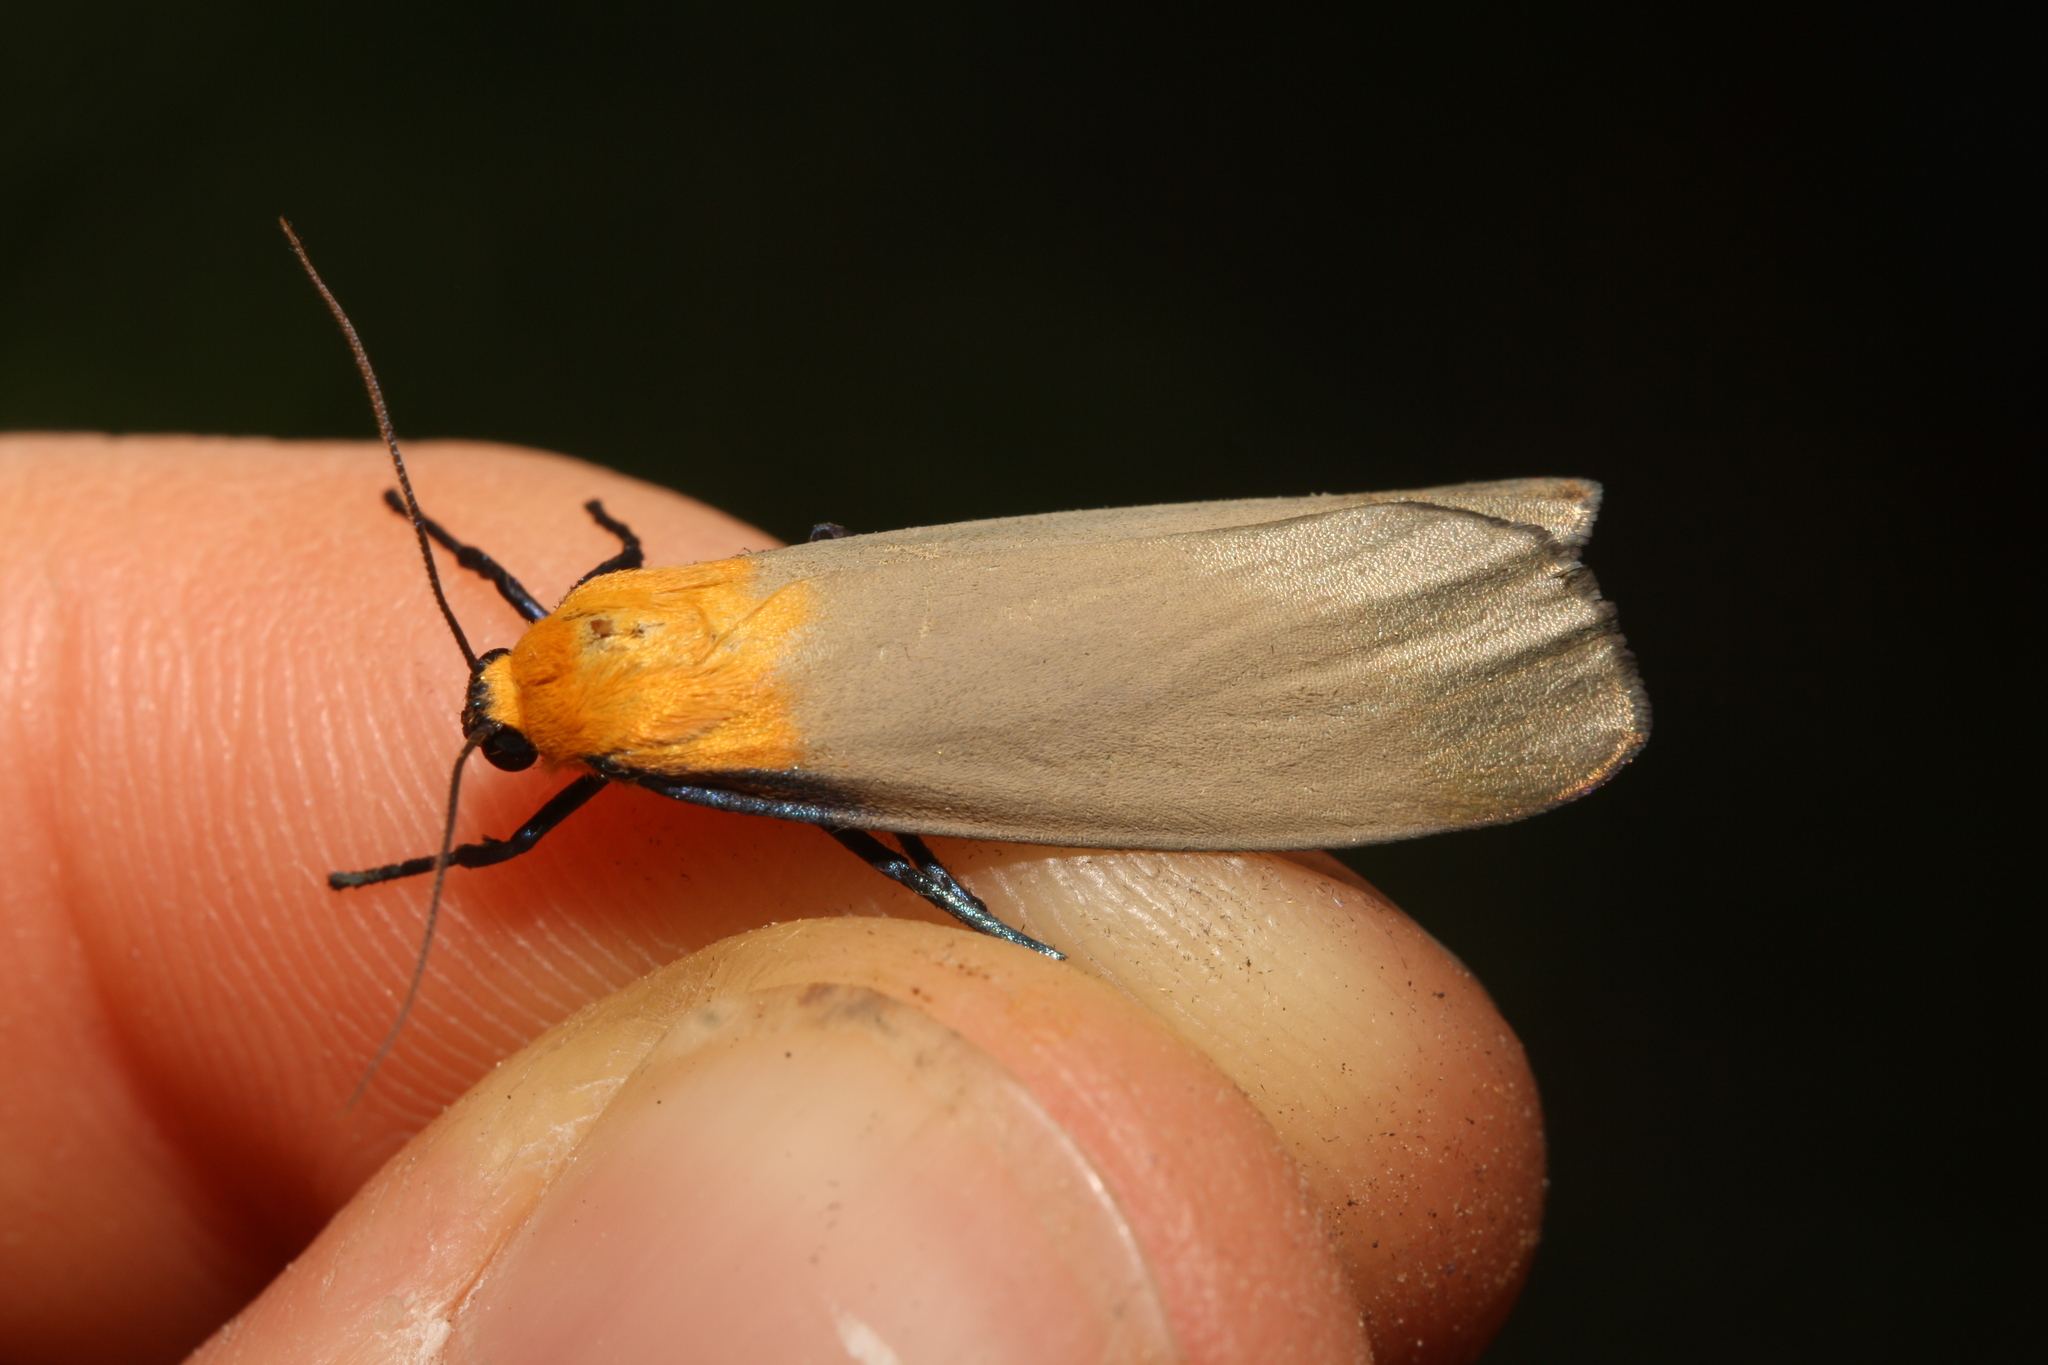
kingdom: Animalia
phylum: Arthropoda
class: Insecta
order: Lepidoptera
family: Erebidae
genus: Lithosia
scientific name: Lithosia quadra
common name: Four-spotted footman
